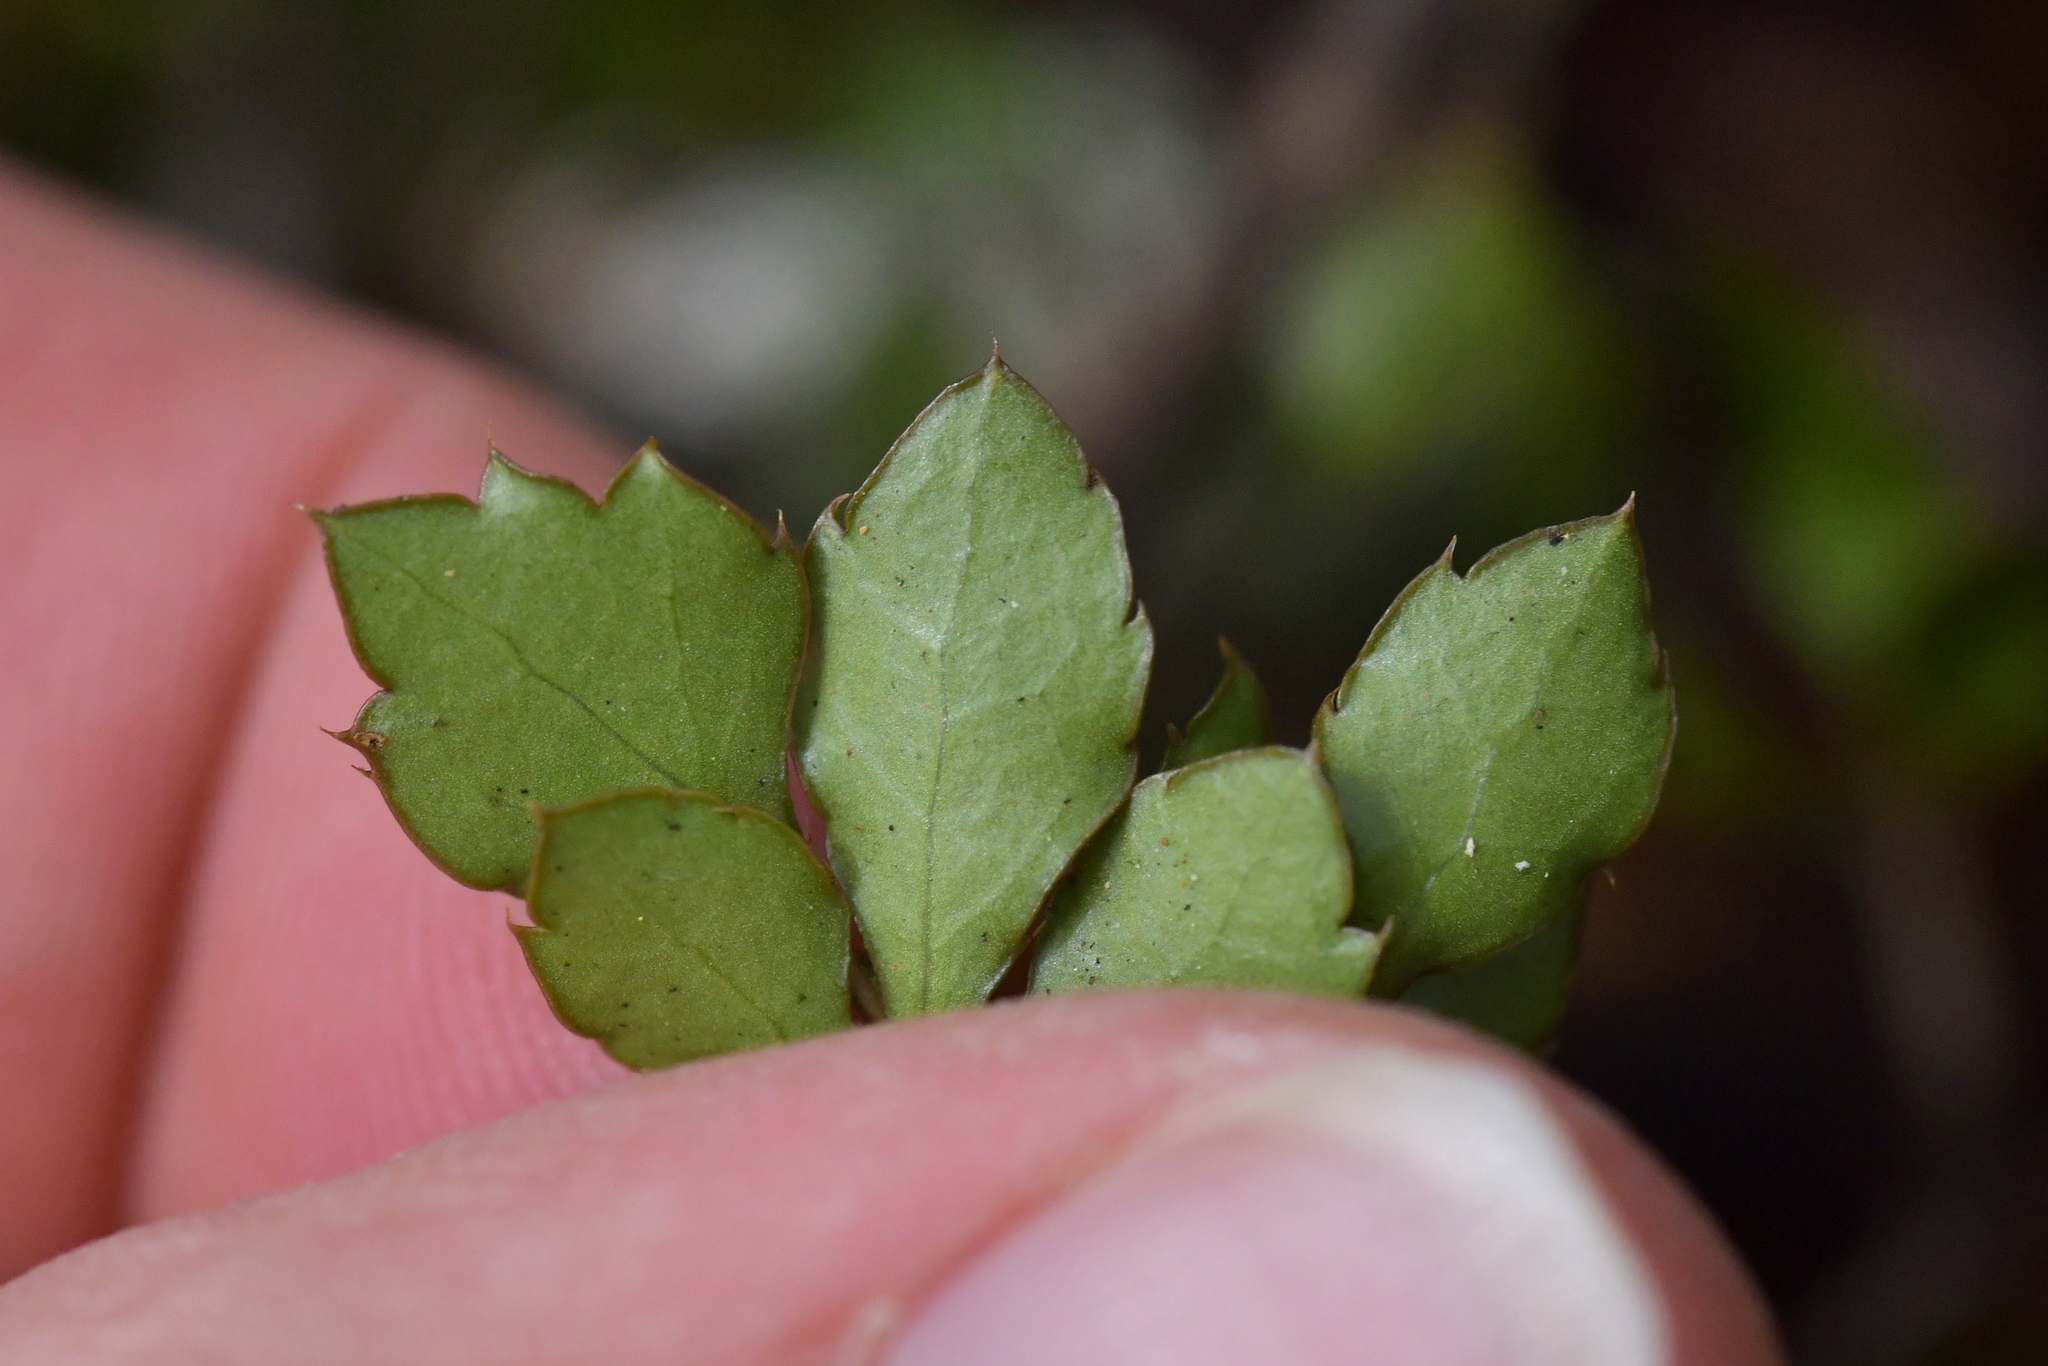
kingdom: Plantae
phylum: Tracheophyta
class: Magnoliopsida
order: Apiales
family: Araliaceae
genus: Raukaua
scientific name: Raukaua anomalus
